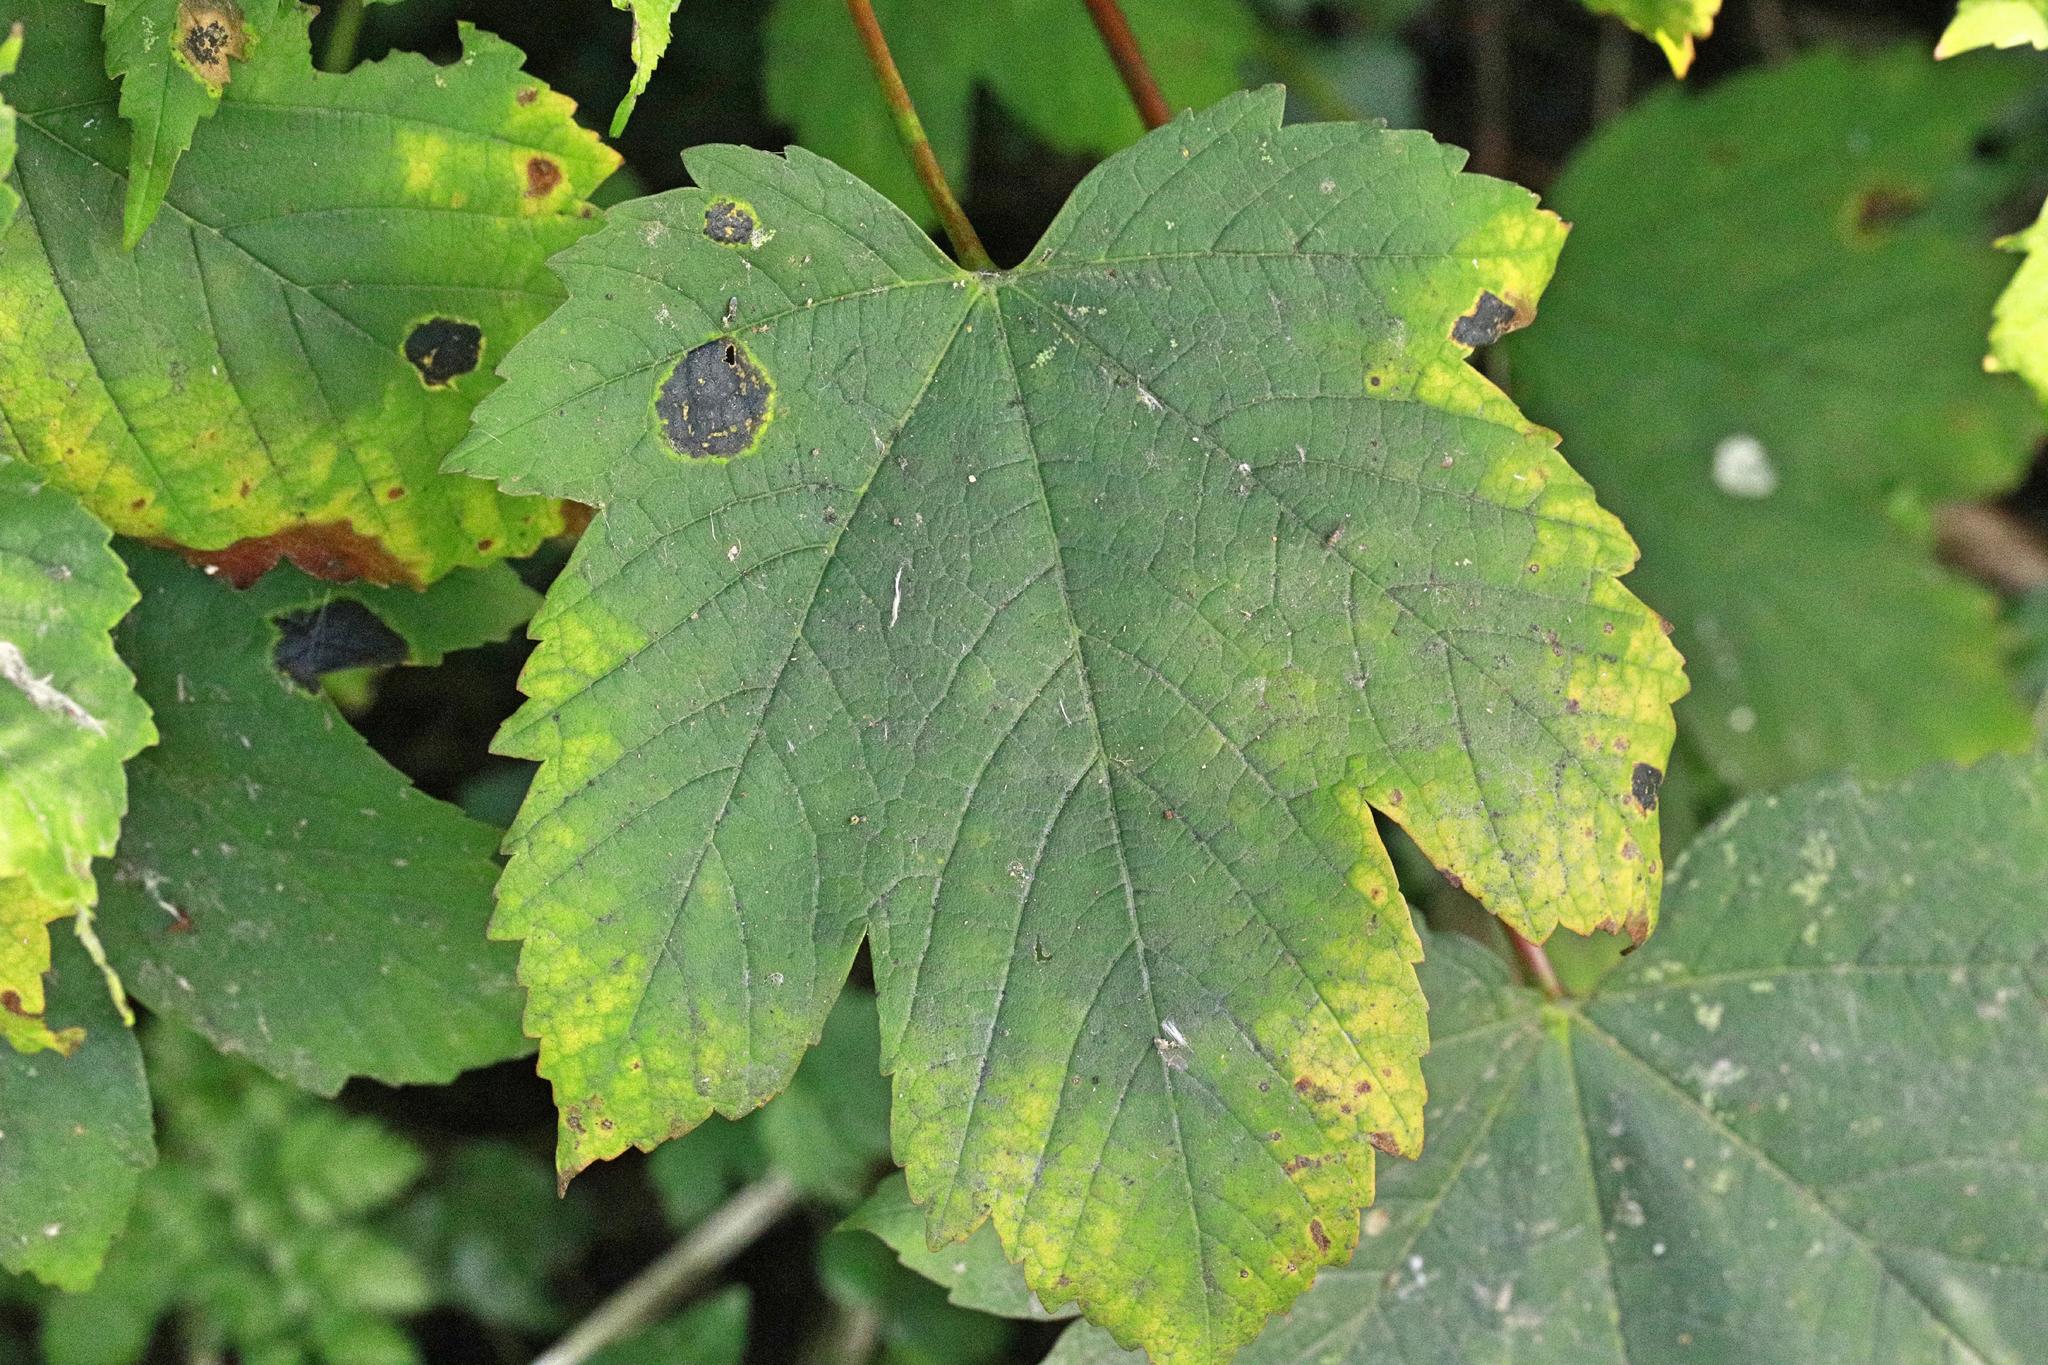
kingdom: Plantae
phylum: Tracheophyta
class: Magnoliopsida
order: Sapindales
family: Sapindaceae
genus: Acer
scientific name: Acer pseudoplatanus
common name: Sycamore
